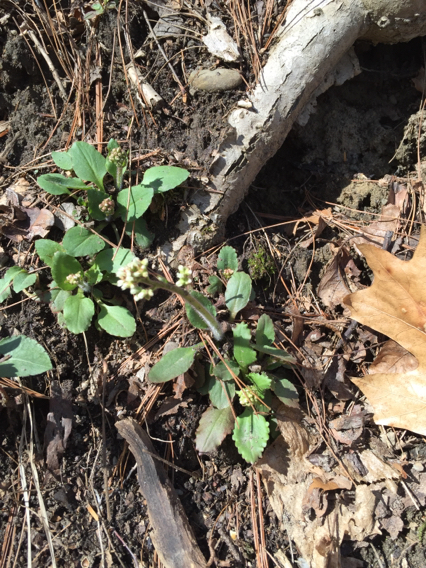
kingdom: Plantae
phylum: Tracheophyta
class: Magnoliopsida
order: Saxifragales
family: Saxifragaceae
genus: Micranthes
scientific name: Micranthes virginiensis
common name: Early saxifrage
